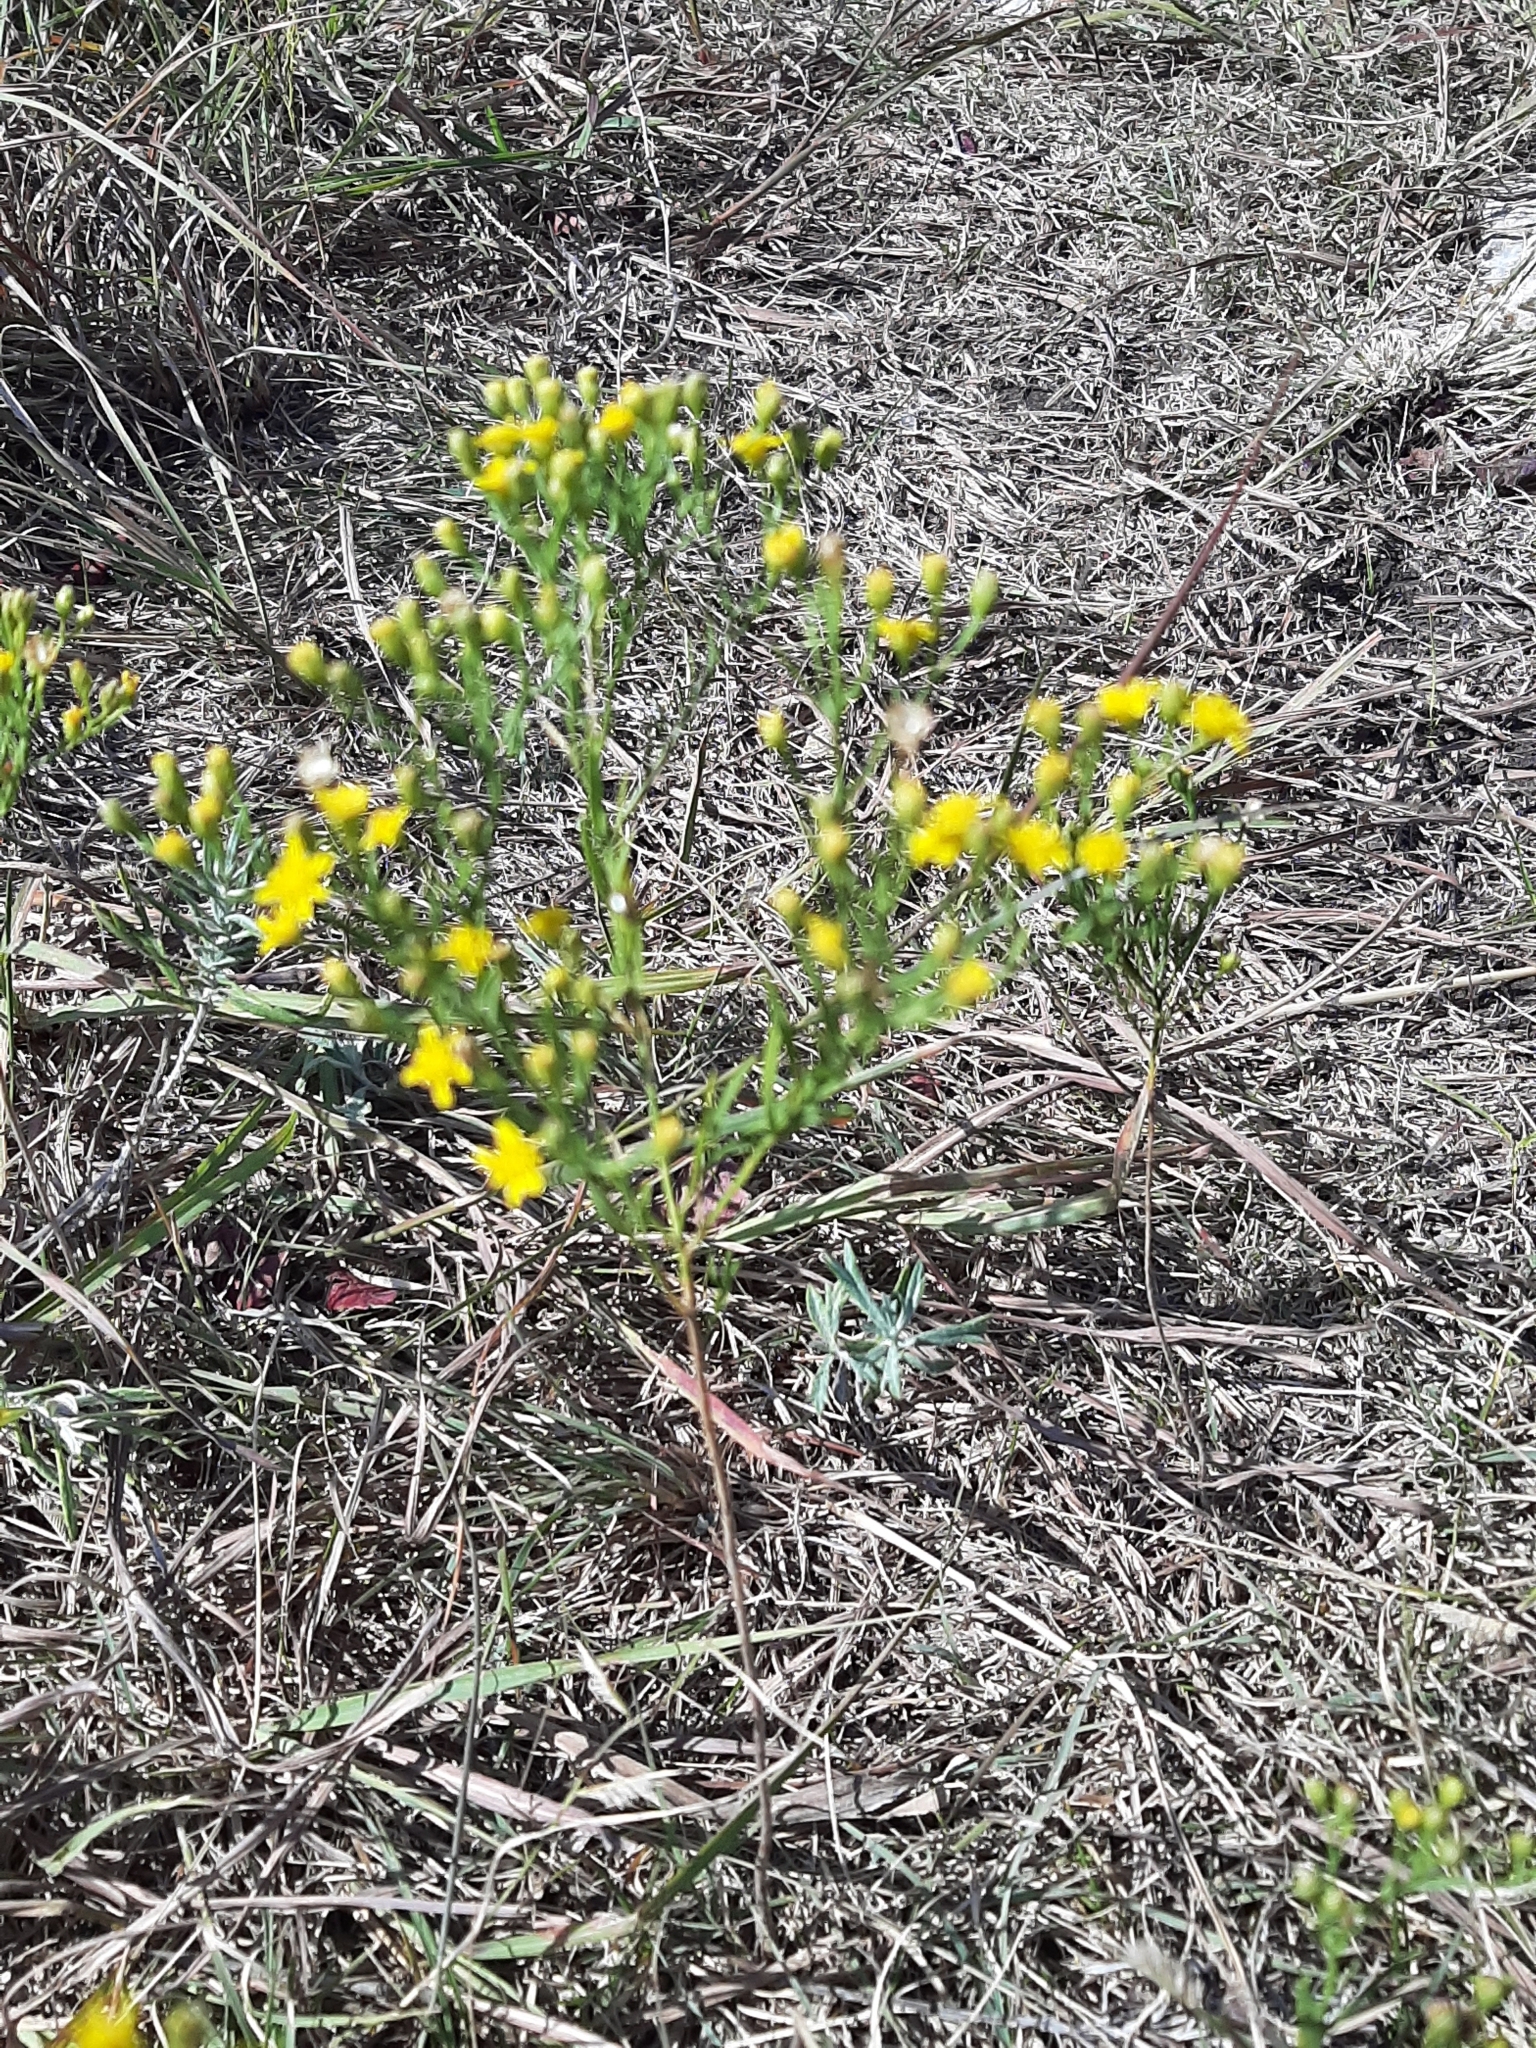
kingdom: Plantae
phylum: Tracheophyta
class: Magnoliopsida
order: Asterales
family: Asteraceae
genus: Amphiachyris
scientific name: Amphiachyris dracunculoides
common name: Broomweed
